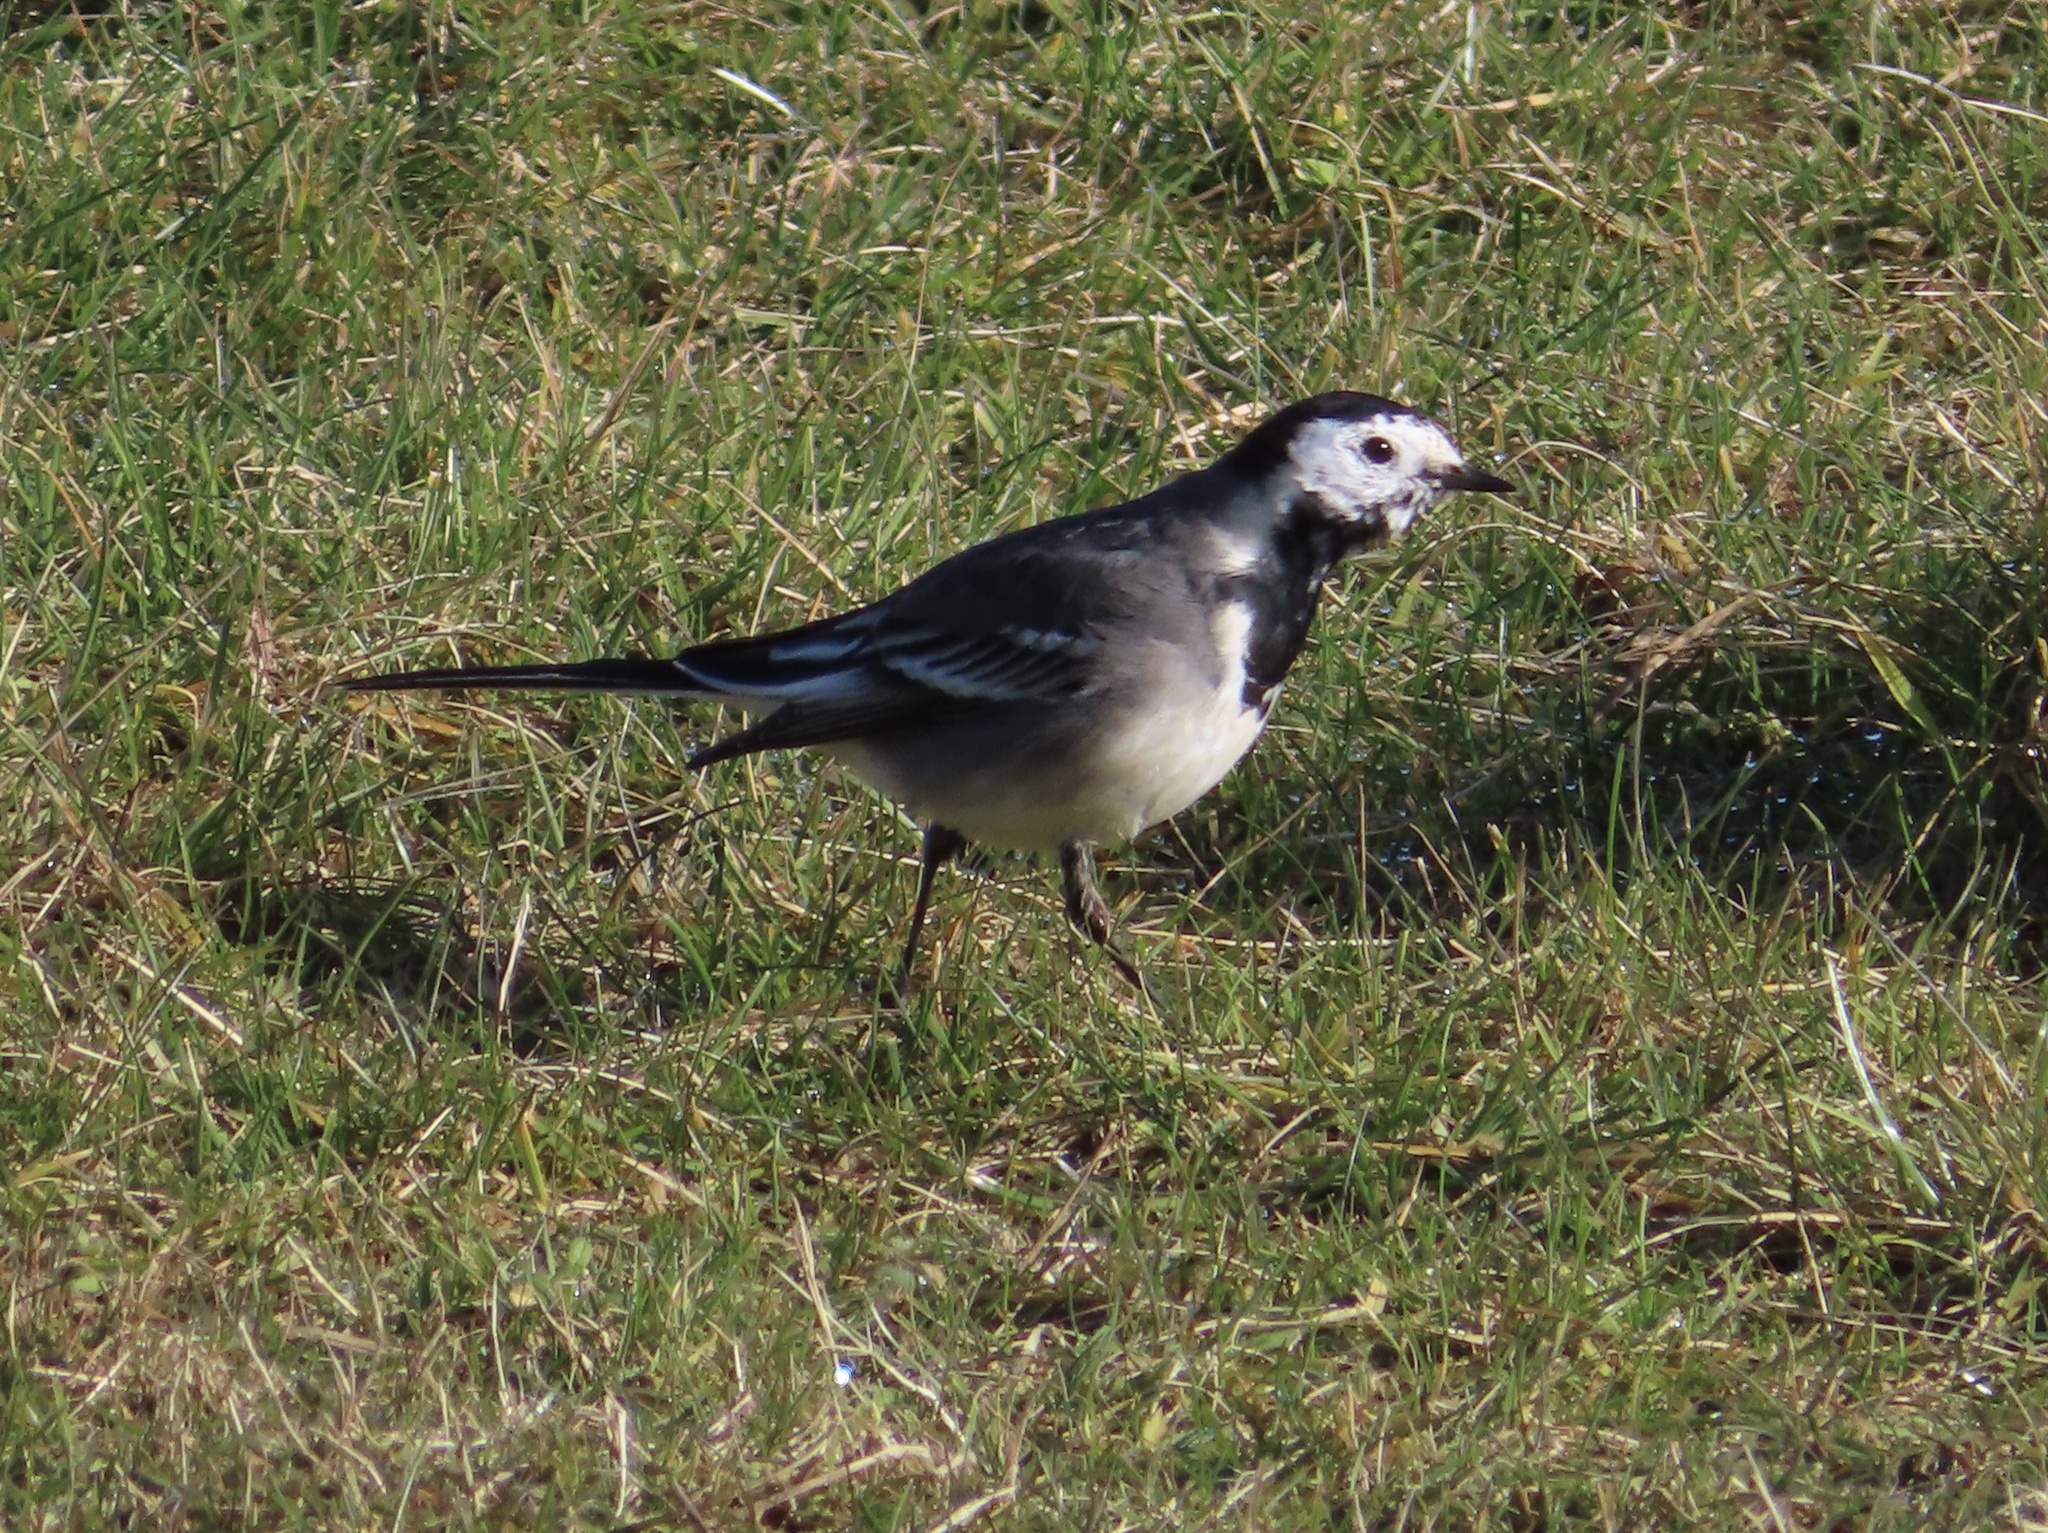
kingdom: Animalia
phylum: Chordata
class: Aves
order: Passeriformes
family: Motacillidae
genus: Motacilla
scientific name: Motacilla alba
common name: White wagtail
